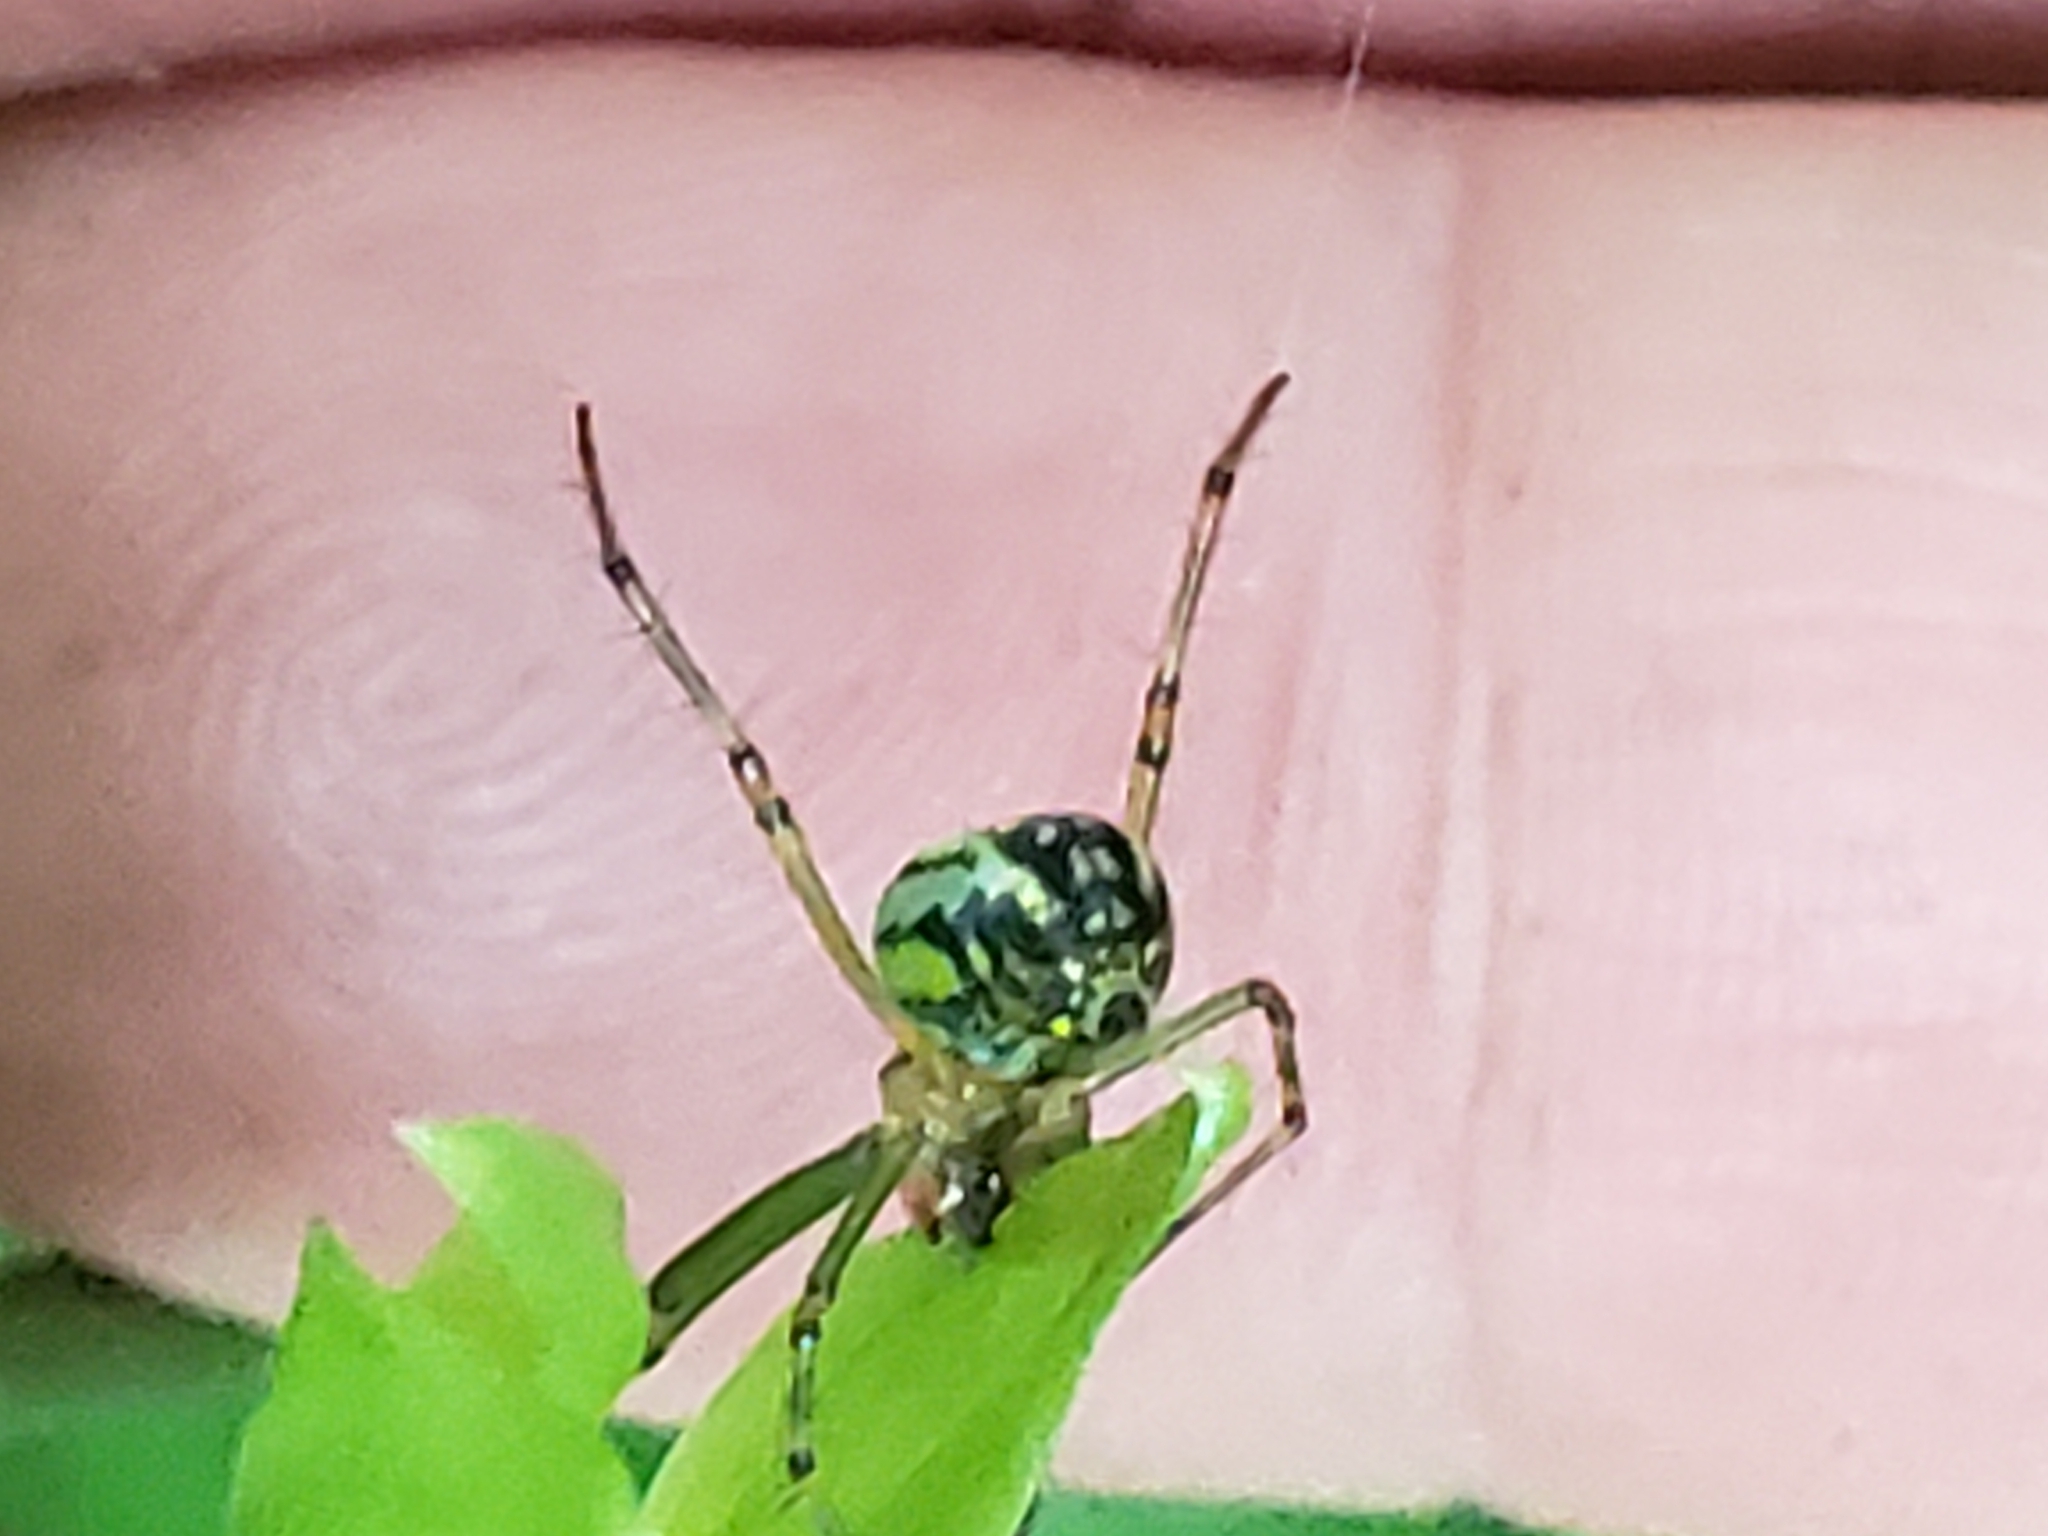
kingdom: Animalia
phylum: Arthropoda
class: Arachnida
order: Araneae
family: Tetragnathidae
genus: Leucauge
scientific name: Leucauge venusta
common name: Longjawed orb weavers
